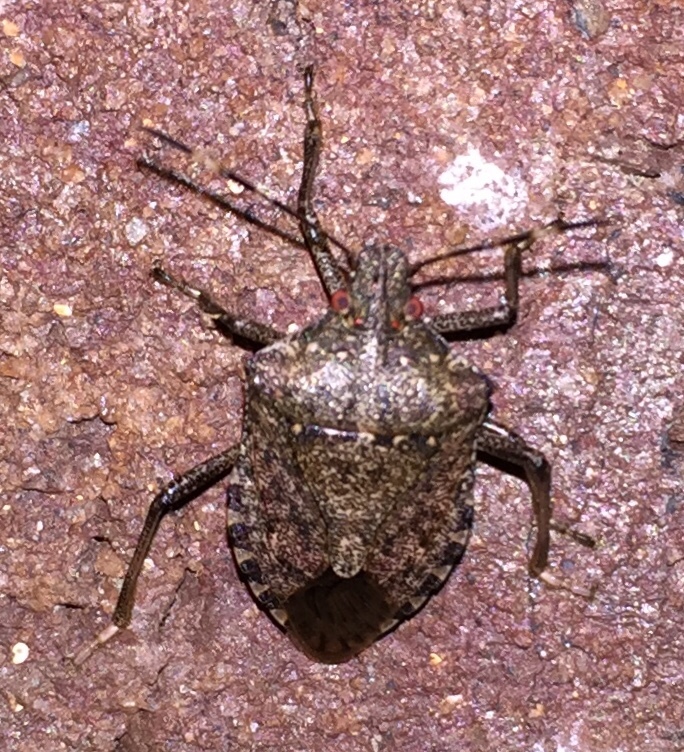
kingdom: Animalia
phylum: Arthropoda
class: Insecta
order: Hemiptera
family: Pentatomidae
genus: Halyomorpha
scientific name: Halyomorpha halys
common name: Brown marmorated stink bug
